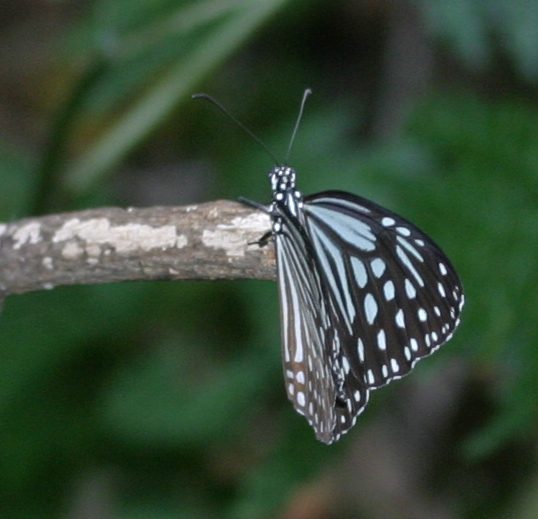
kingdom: Animalia
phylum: Arthropoda
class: Insecta
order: Lepidoptera
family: Nymphalidae
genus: Parantica
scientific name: Parantica agleoides
